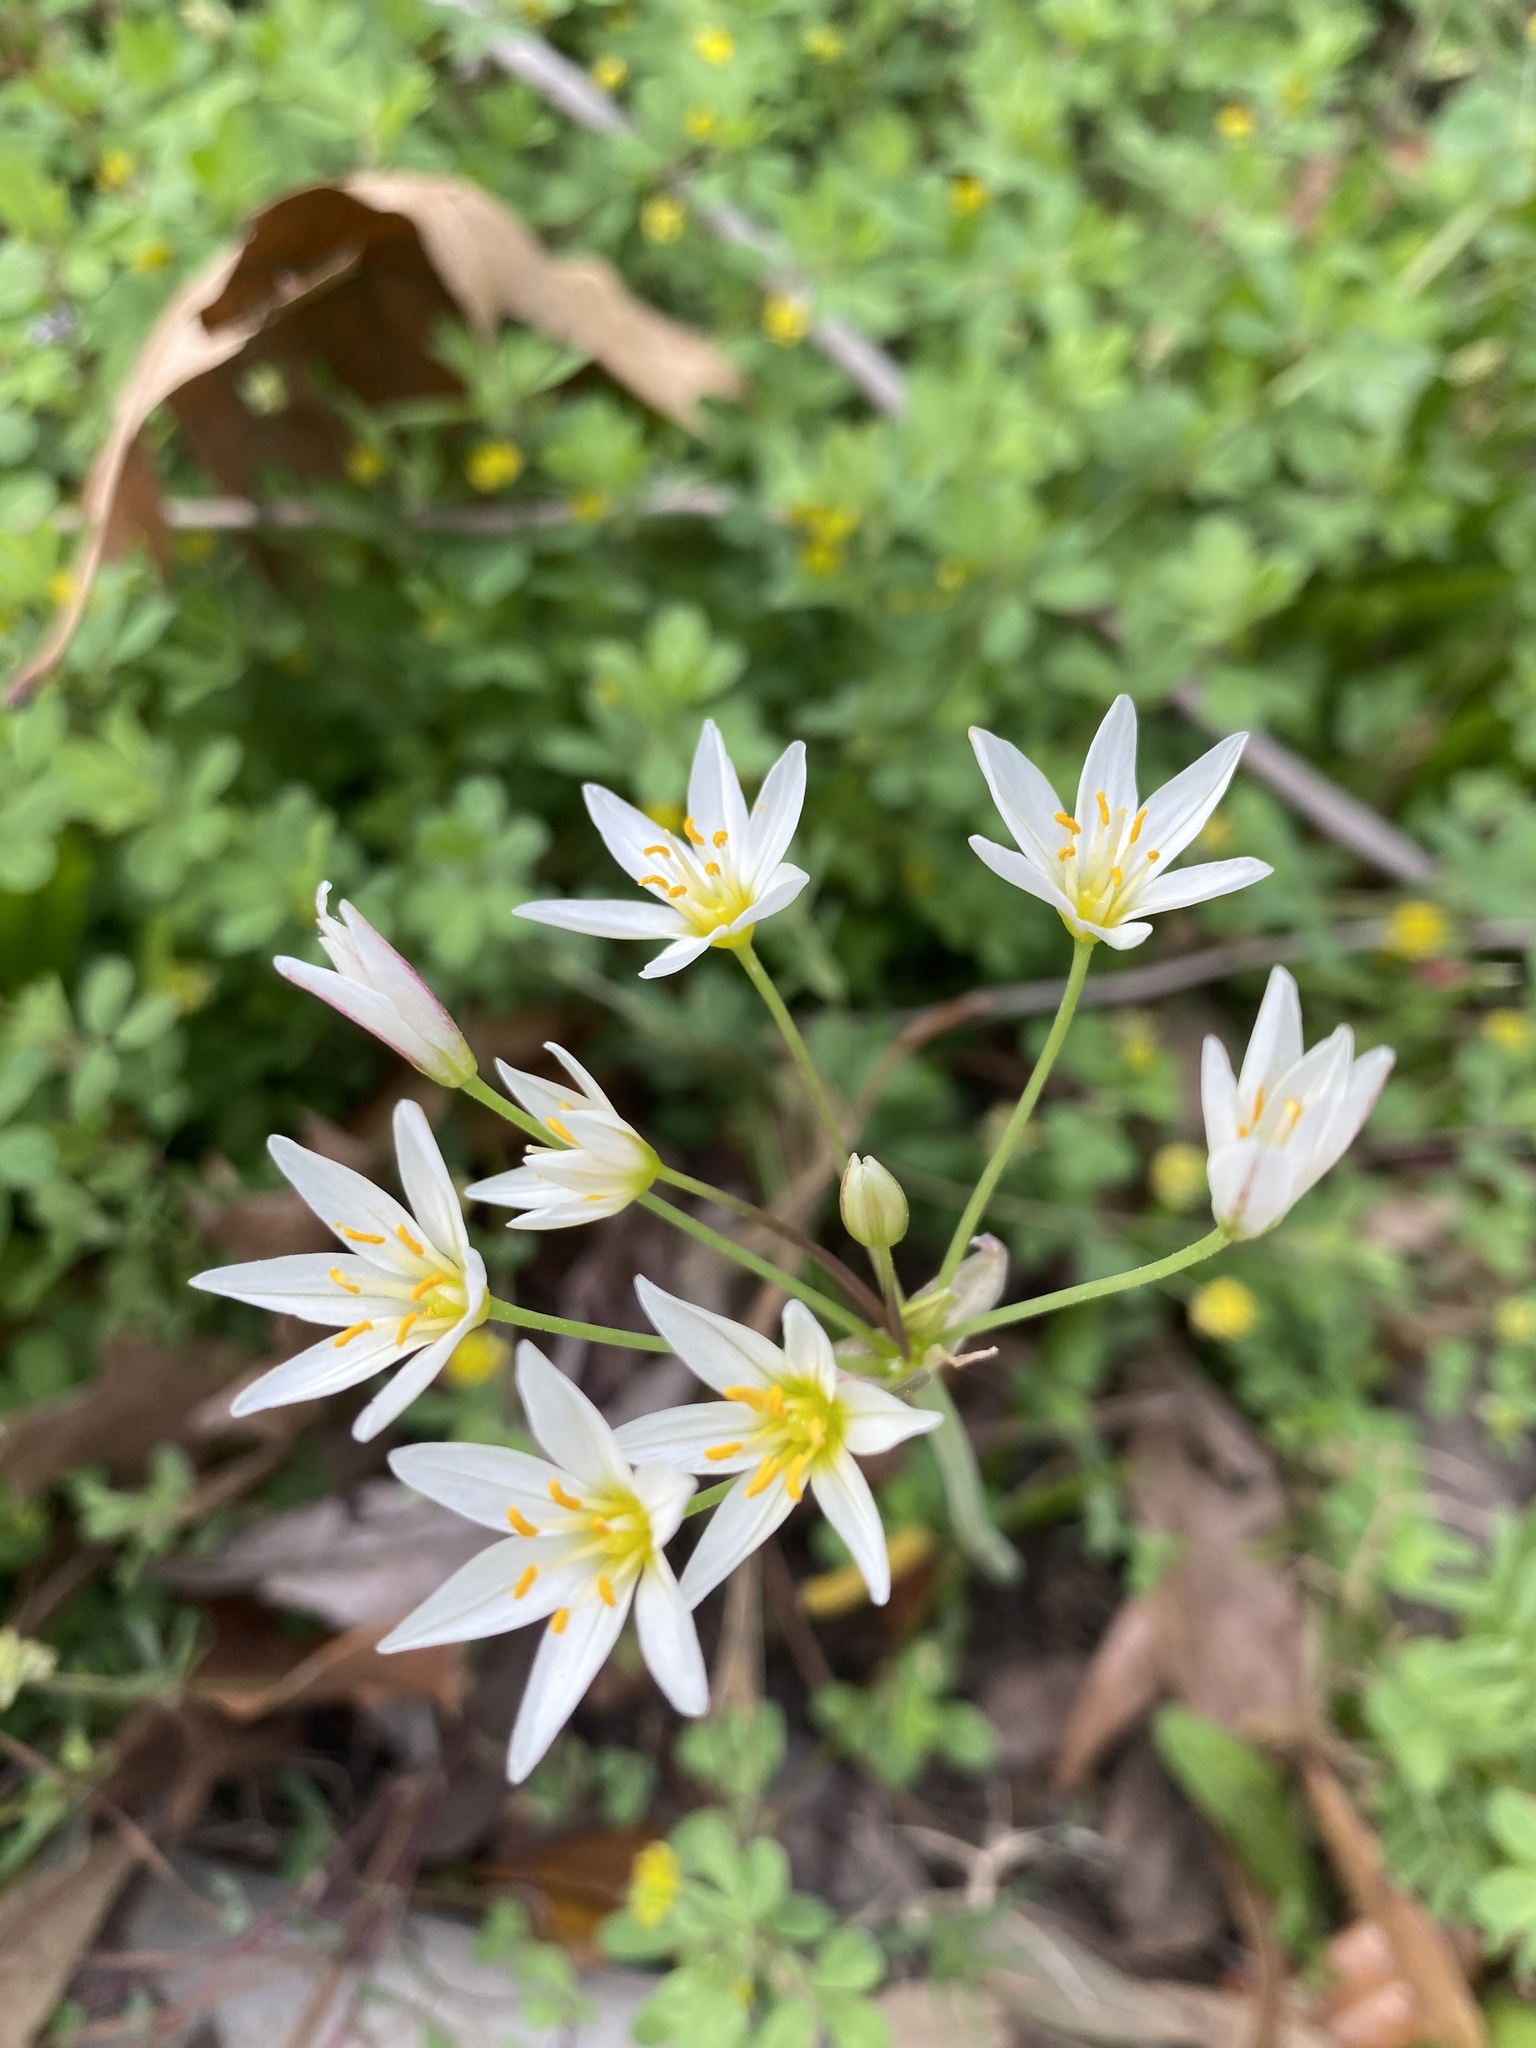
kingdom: Plantae
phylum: Tracheophyta
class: Liliopsida
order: Asparagales
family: Amaryllidaceae
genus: Nothoscordum
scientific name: Nothoscordum bivalve
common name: Crow-poison
